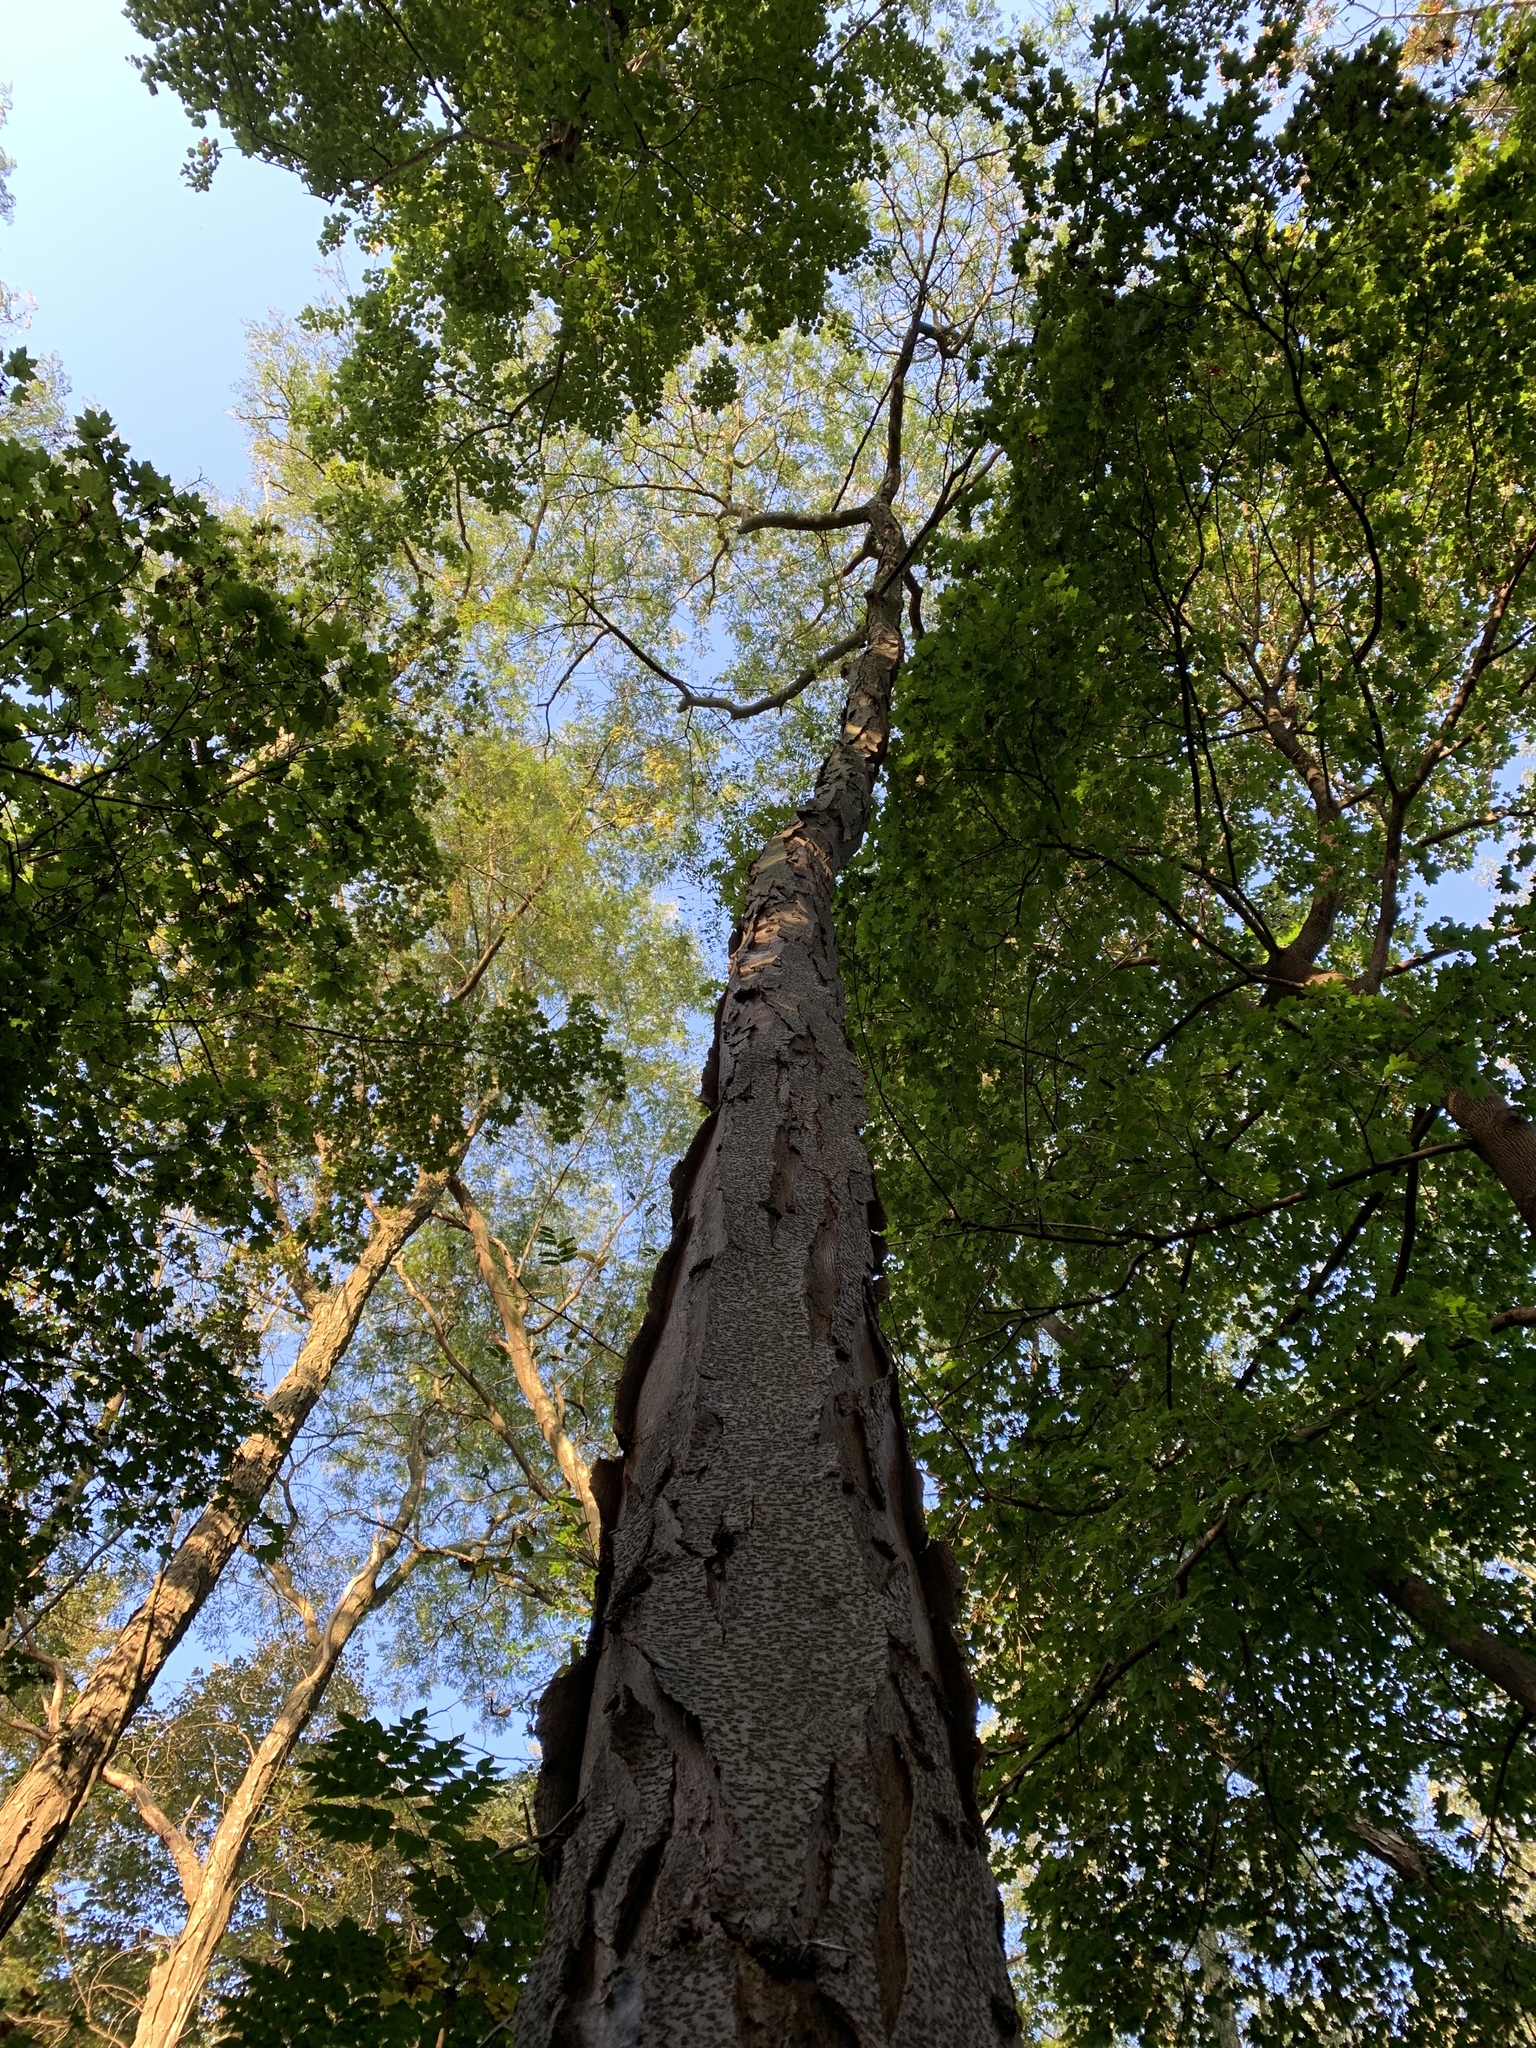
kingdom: Plantae
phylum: Tracheophyta
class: Magnoliopsida
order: Fabales
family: Fabaceae
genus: Gleditsia
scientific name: Gleditsia triacanthos
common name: Common honeylocust
